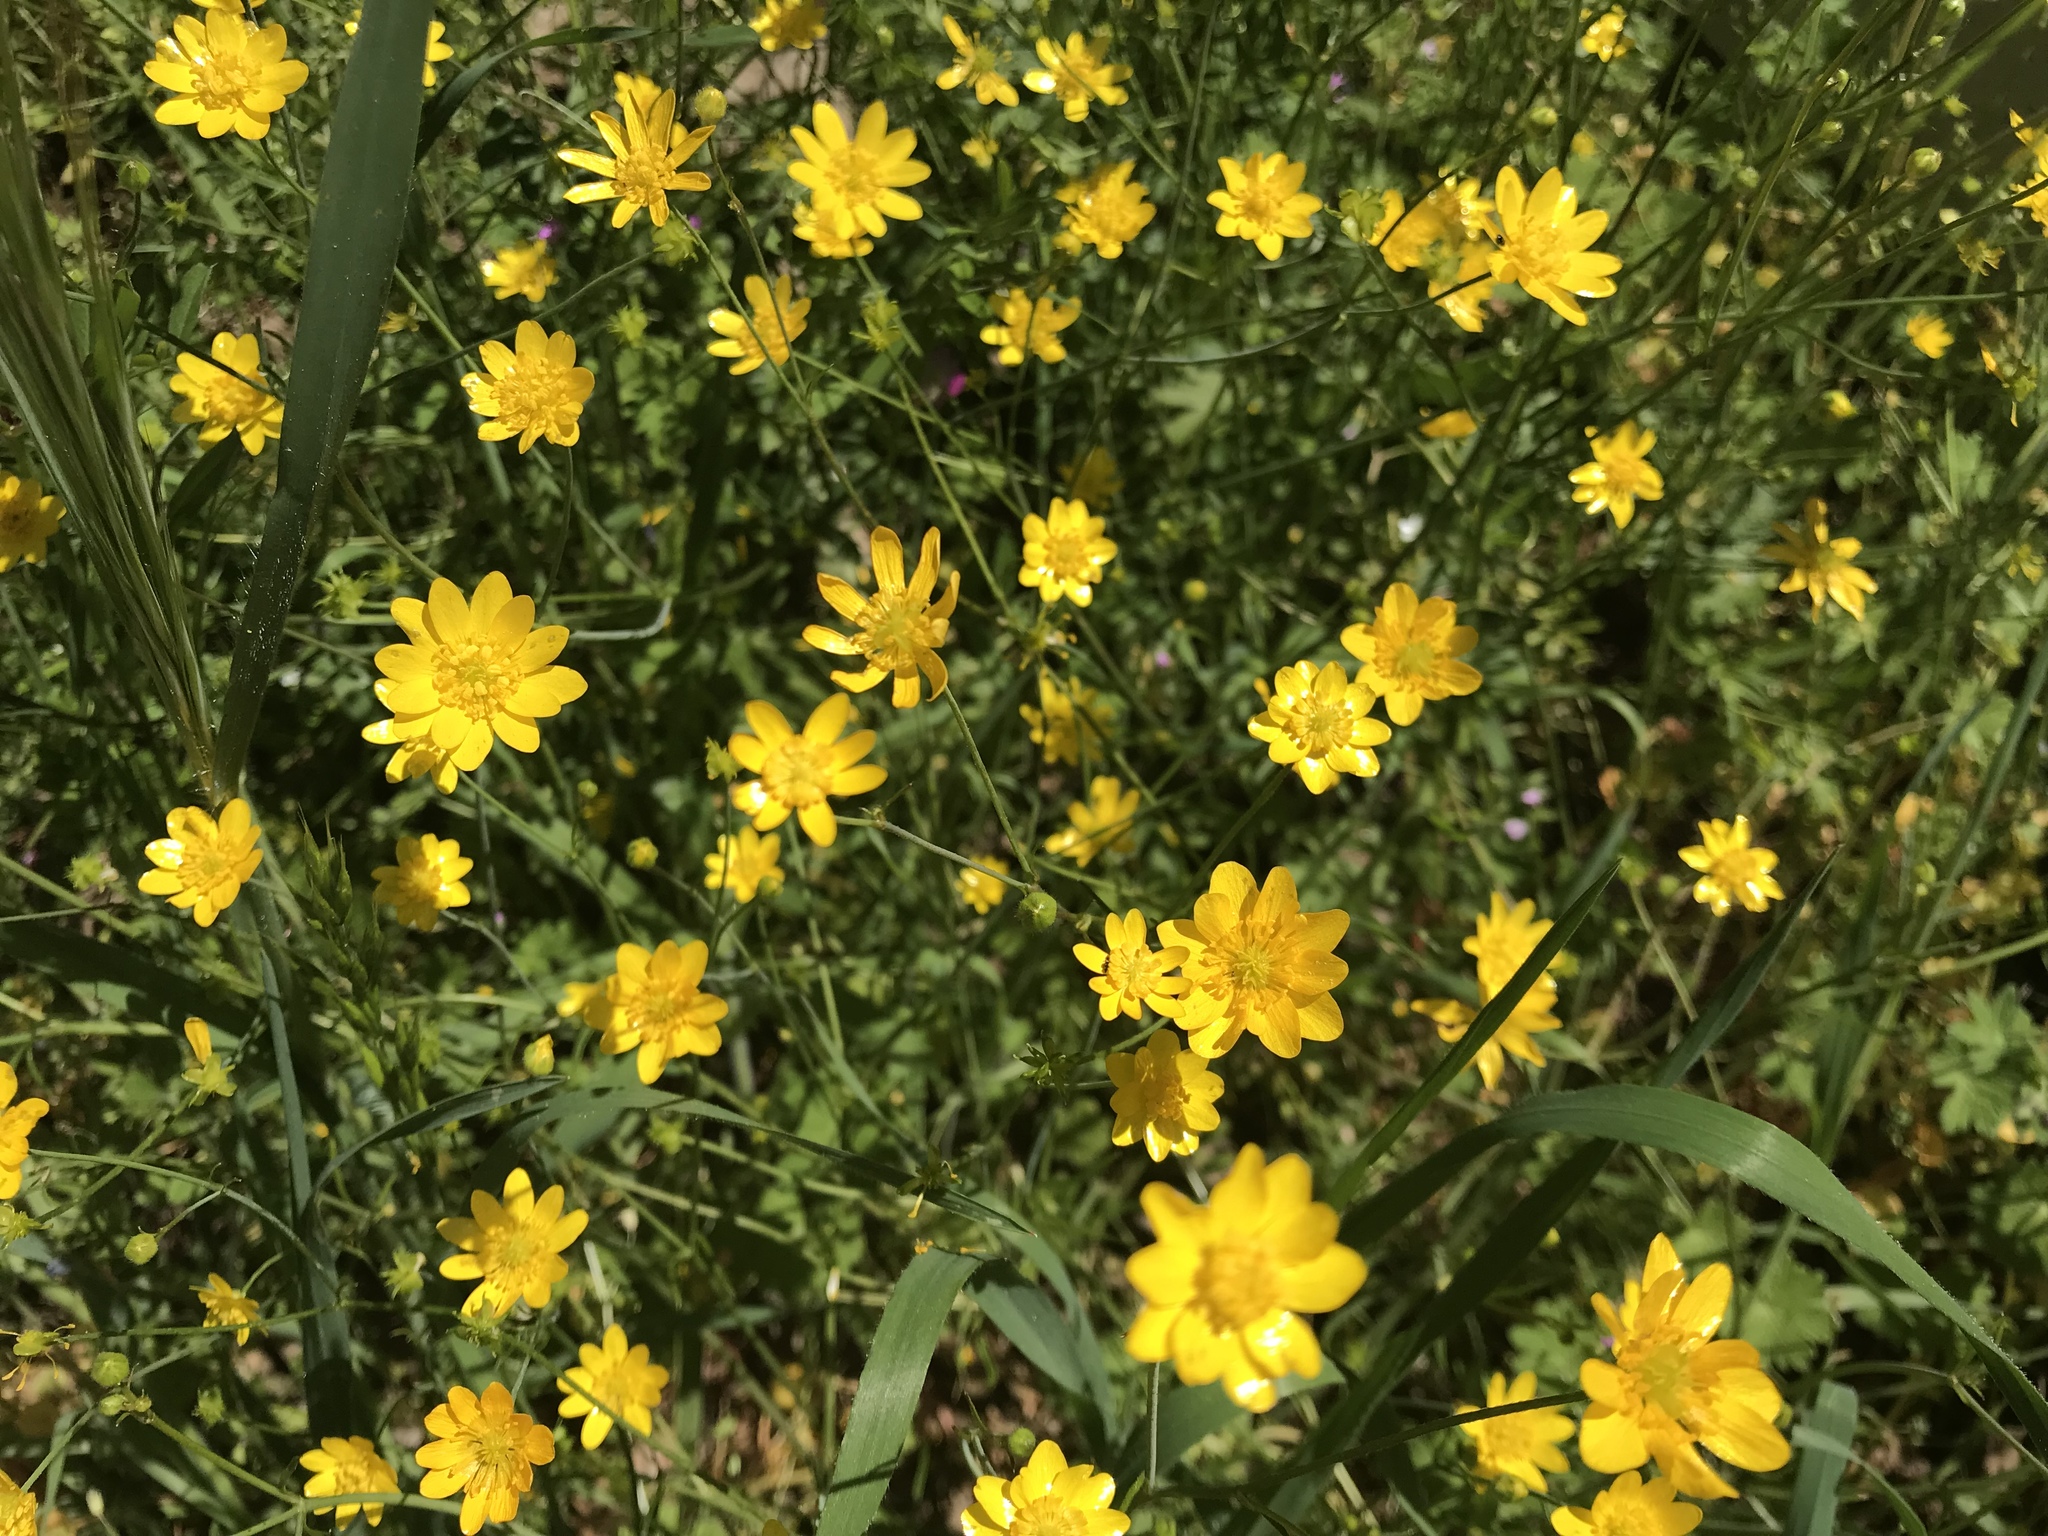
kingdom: Plantae
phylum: Tracheophyta
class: Magnoliopsida
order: Ranunculales
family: Ranunculaceae
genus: Ranunculus
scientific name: Ranunculus californicus
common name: California buttercup
